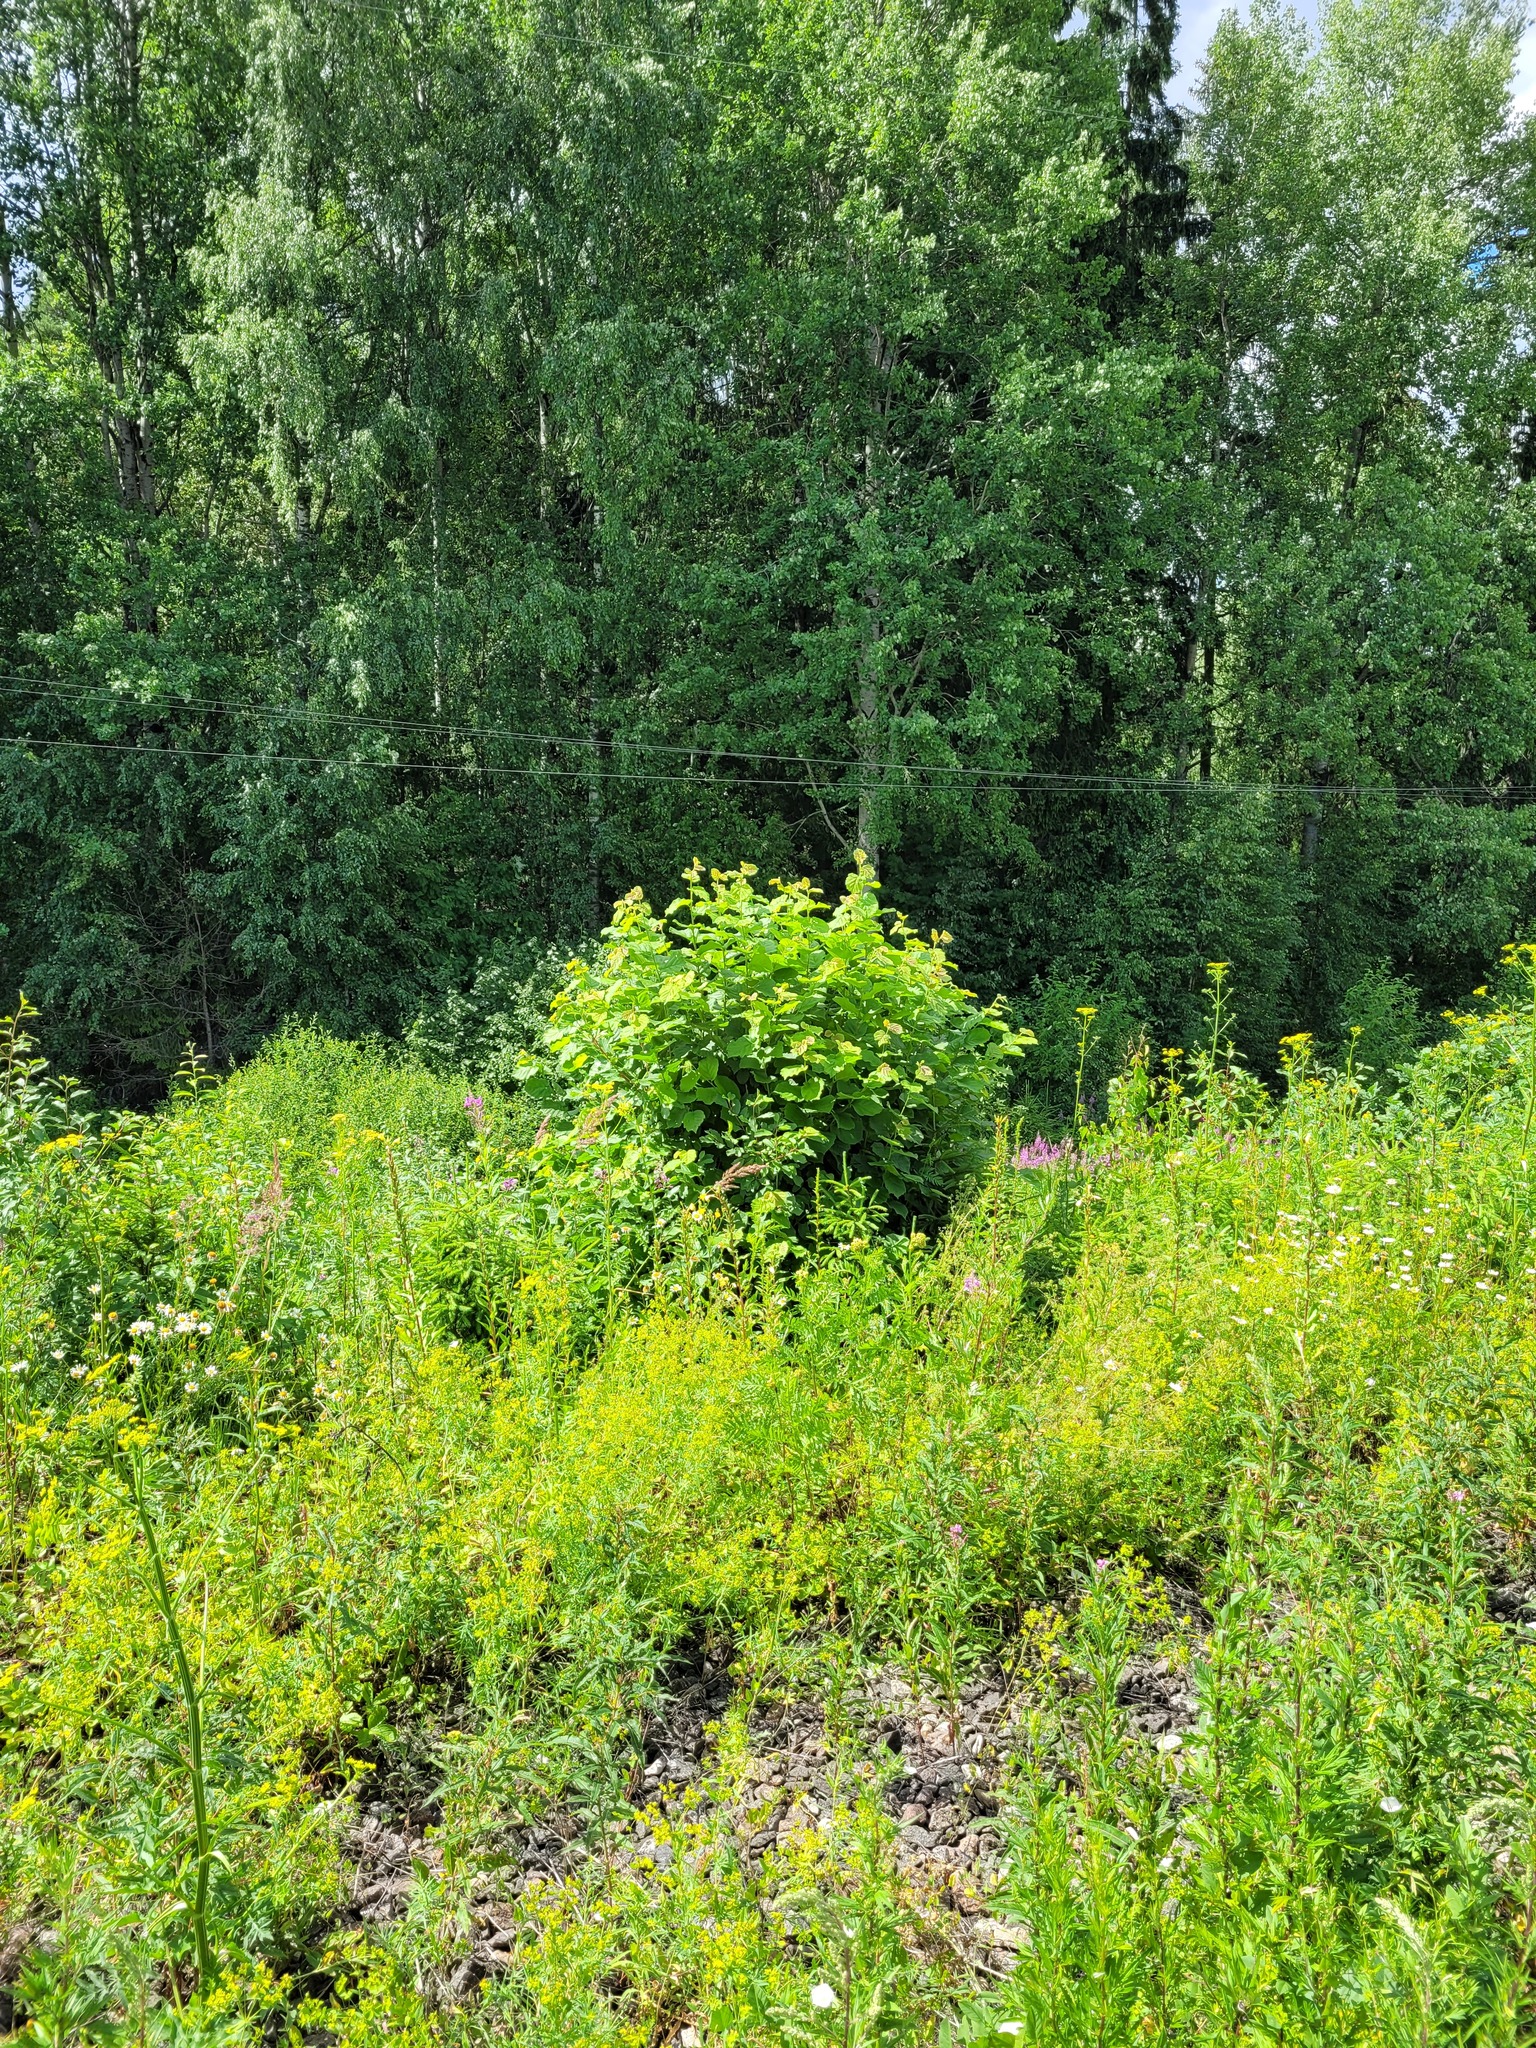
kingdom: Plantae
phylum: Tracheophyta
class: Magnoliopsida
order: Fagales
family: Betulaceae
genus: Corylus
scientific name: Corylus avellana
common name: European hazel
